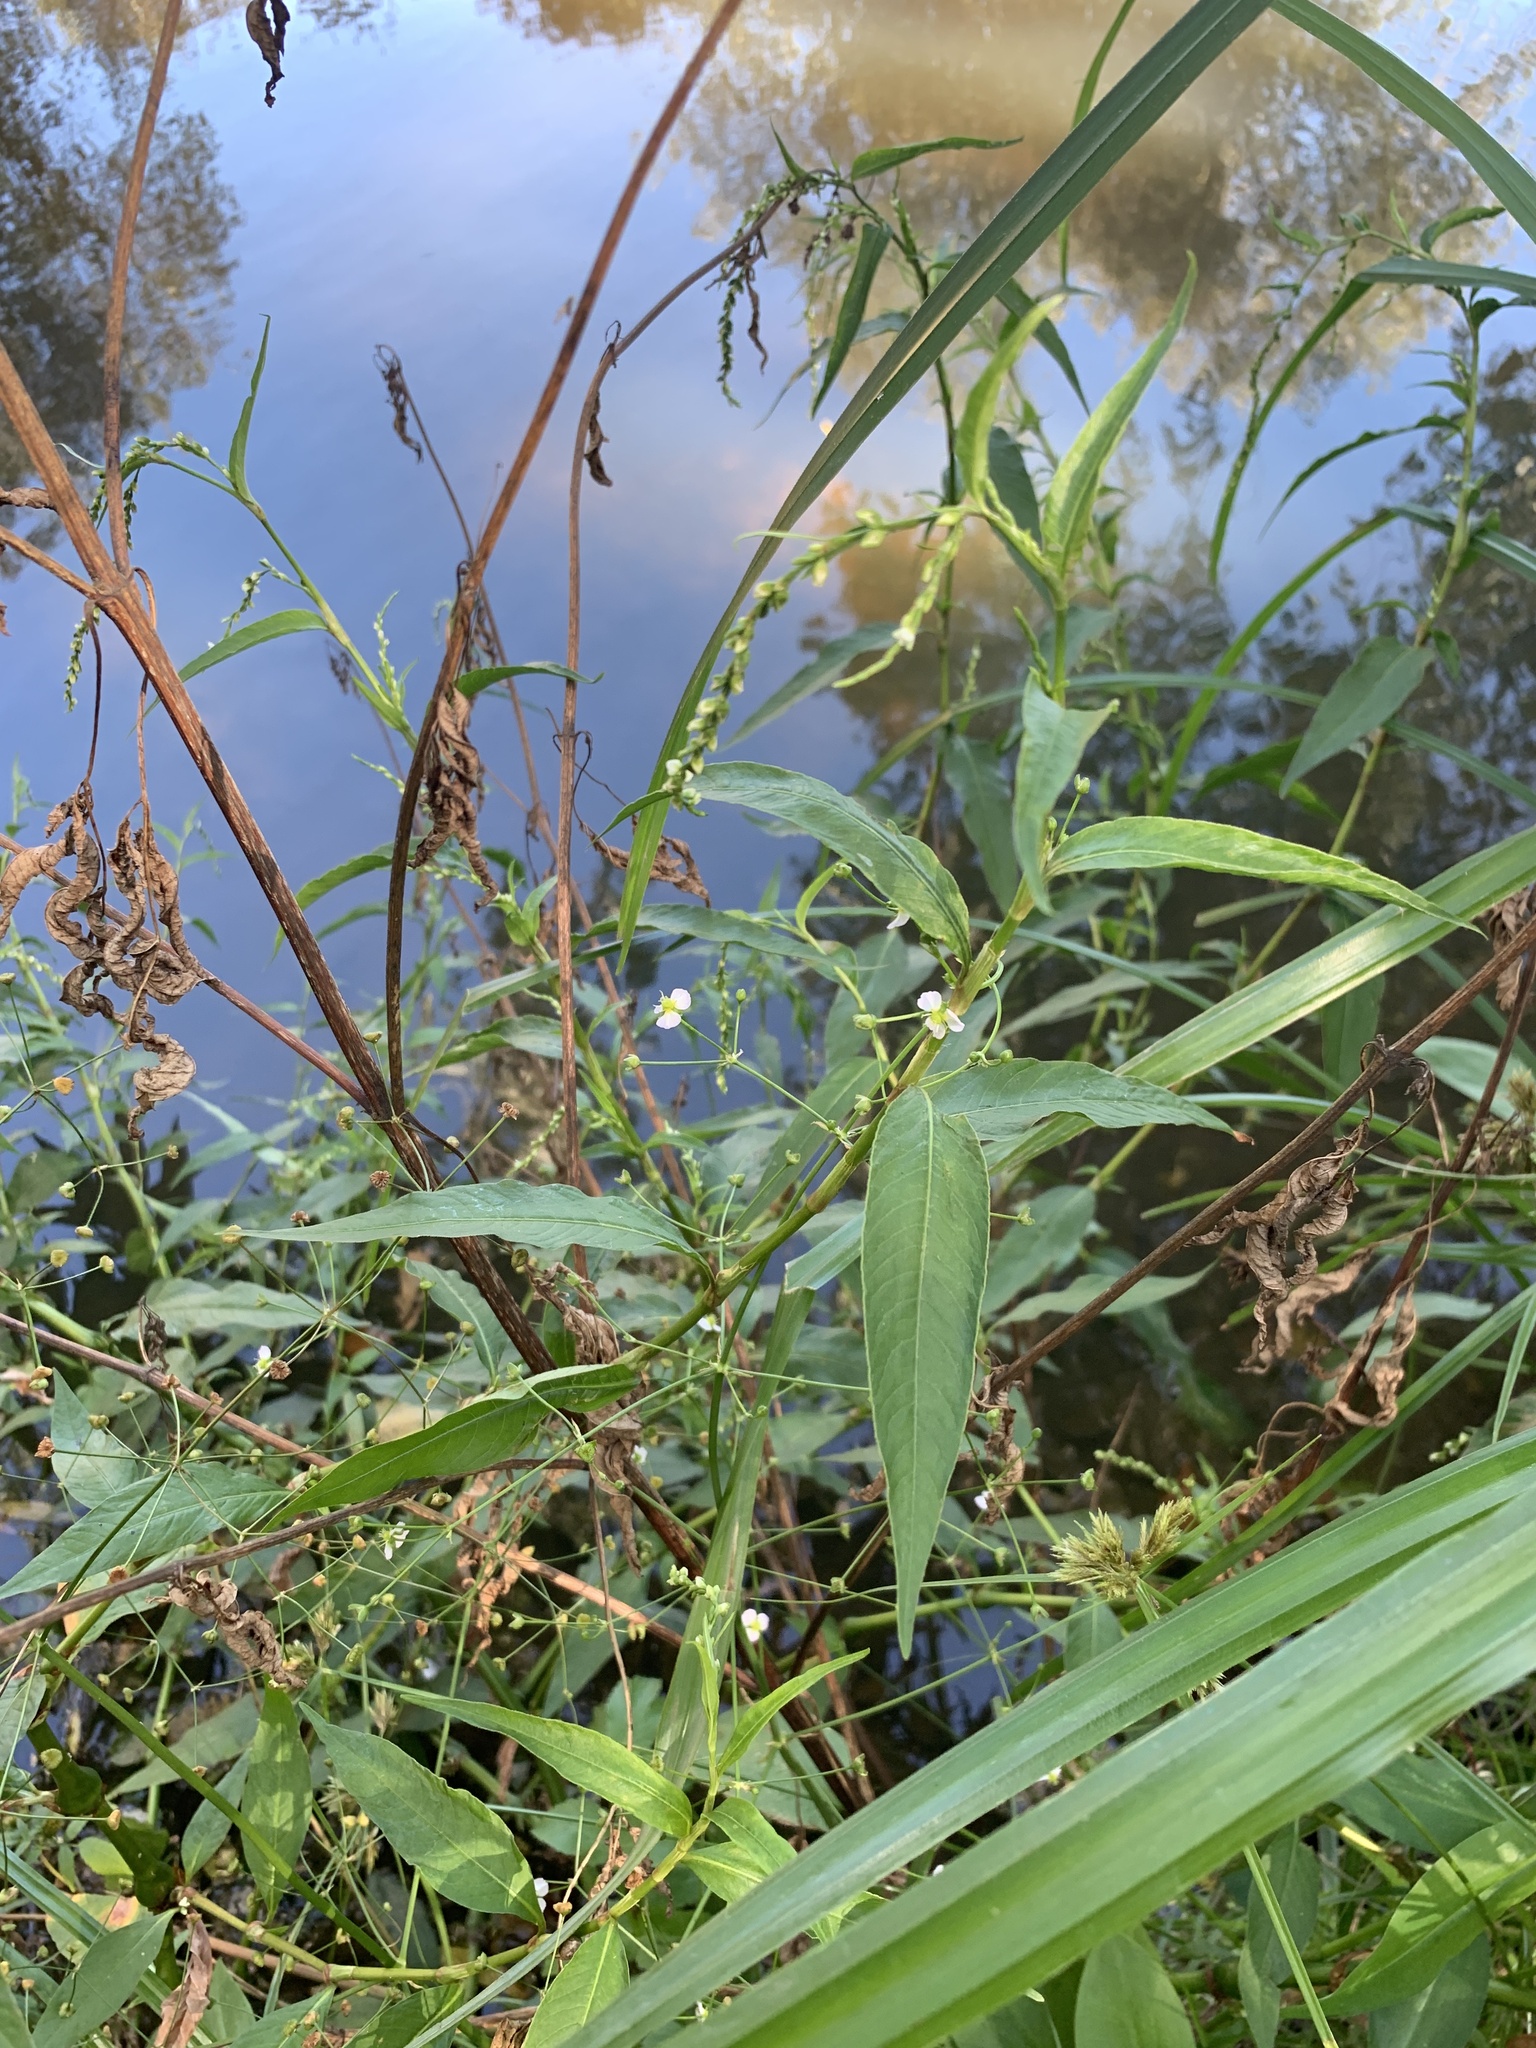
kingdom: Plantae
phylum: Tracheophyta
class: Liliopsida
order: Alismatales
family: Alismataceae
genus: Alisma
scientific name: Alisma plantago-aquatica
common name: Water-plantain
